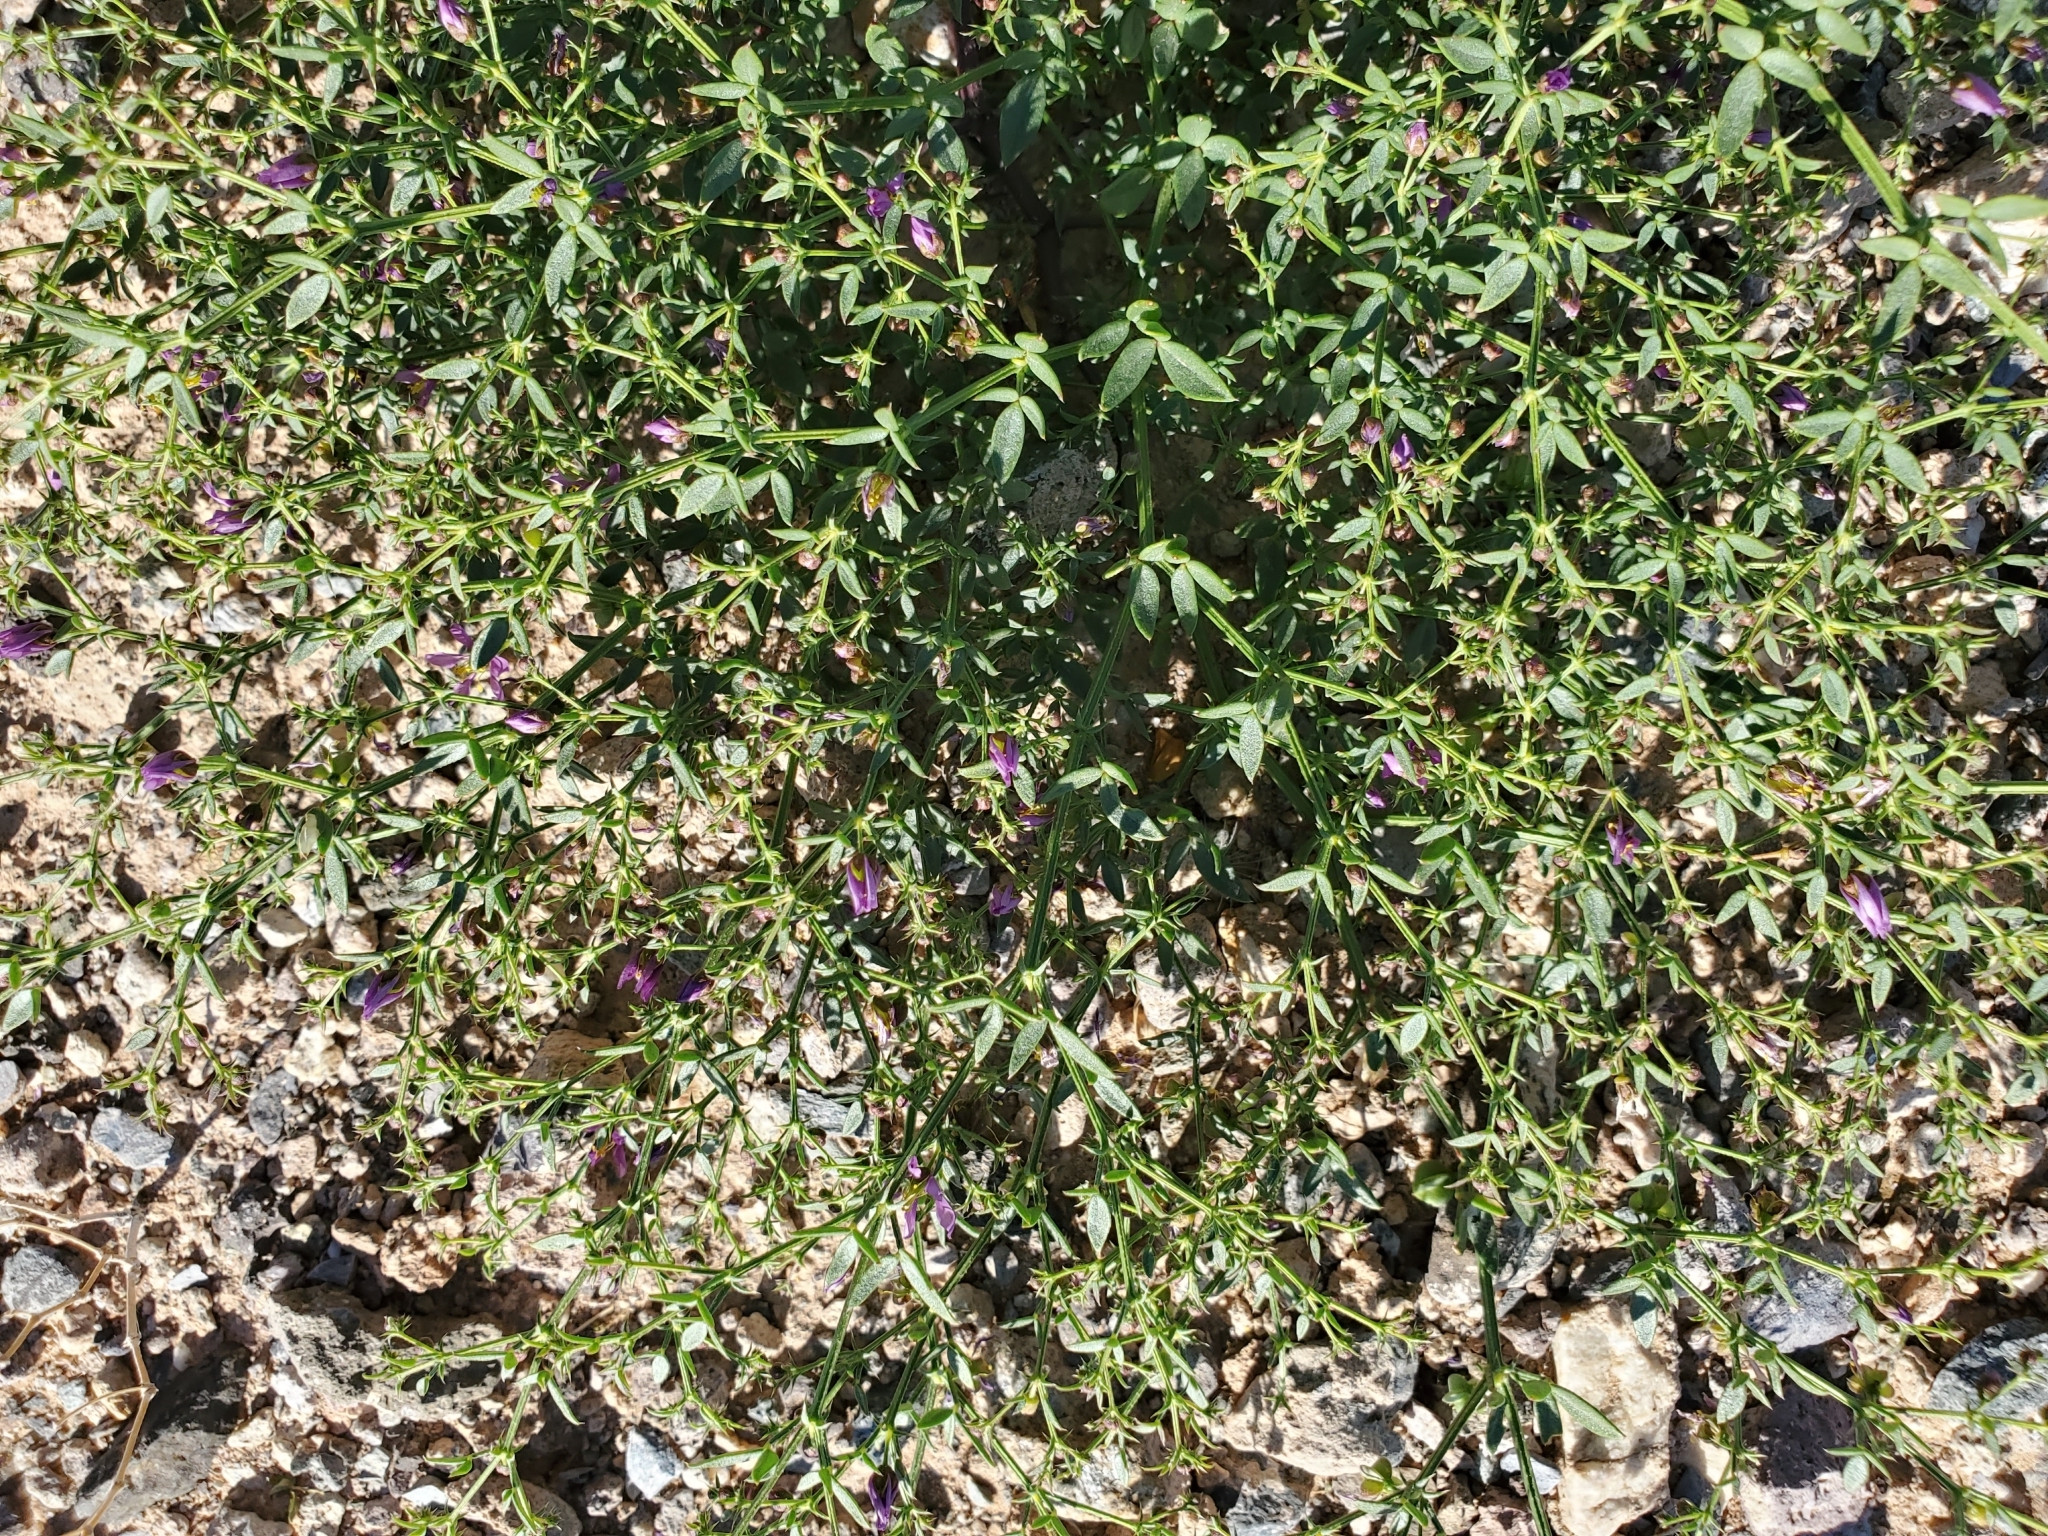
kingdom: Plantae
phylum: Tracheophyta
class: Magnoliopsida
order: Zygophyllales
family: Zygophyllaceae
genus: Fagonia
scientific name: Fagonia laevis
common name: California fagonbush
